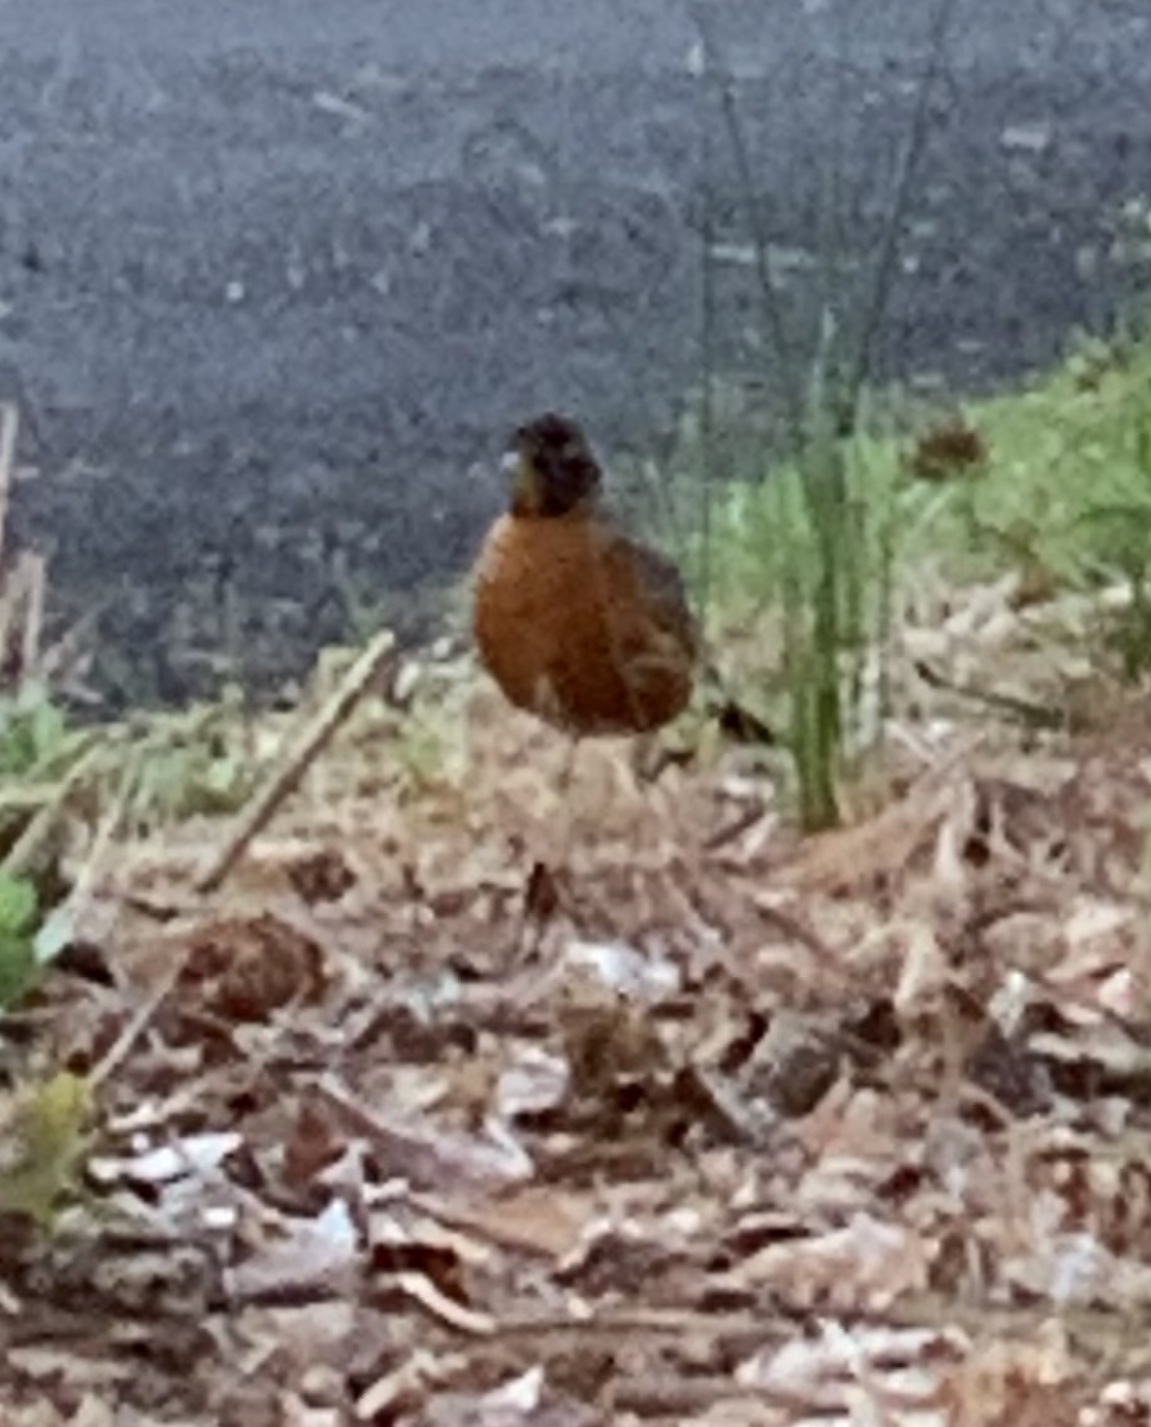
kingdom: Animalia
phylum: Chordata
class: Aves
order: Passeriformes
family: Turdidae
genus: Turdus
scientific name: Turdus migratorius
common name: American robin
